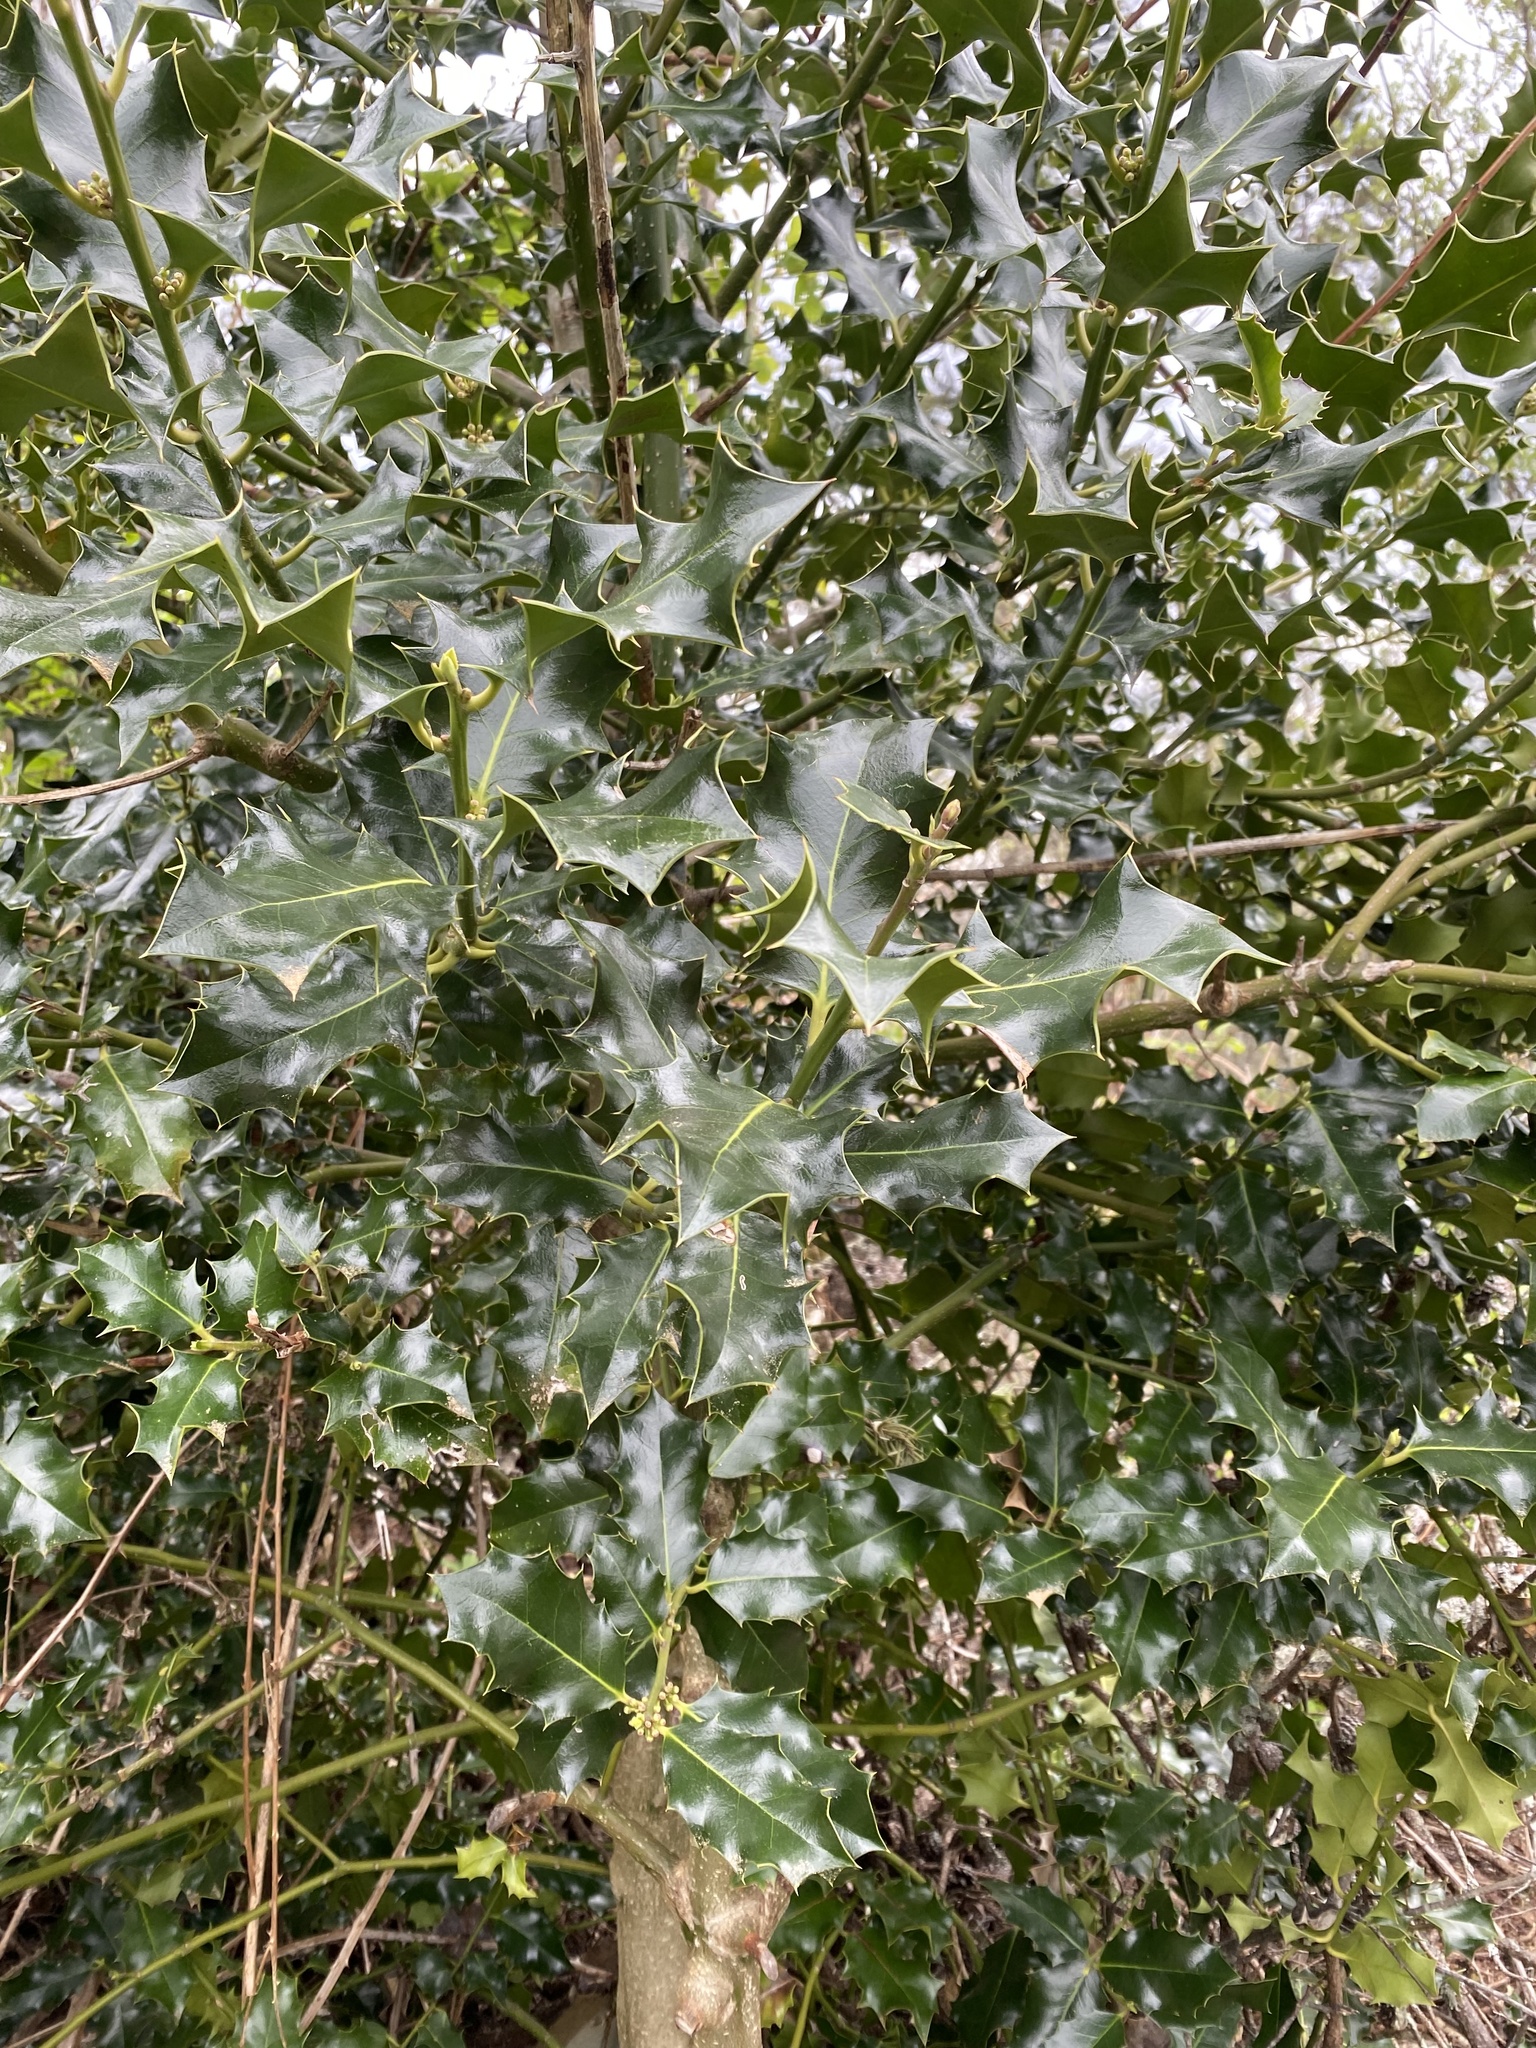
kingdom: Plantae
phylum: Tracheophyta
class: Magnoliopsida
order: Aquifoliales
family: Aquifoliaceae
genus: Ilex
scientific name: Ilex aquifolium
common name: English holly
